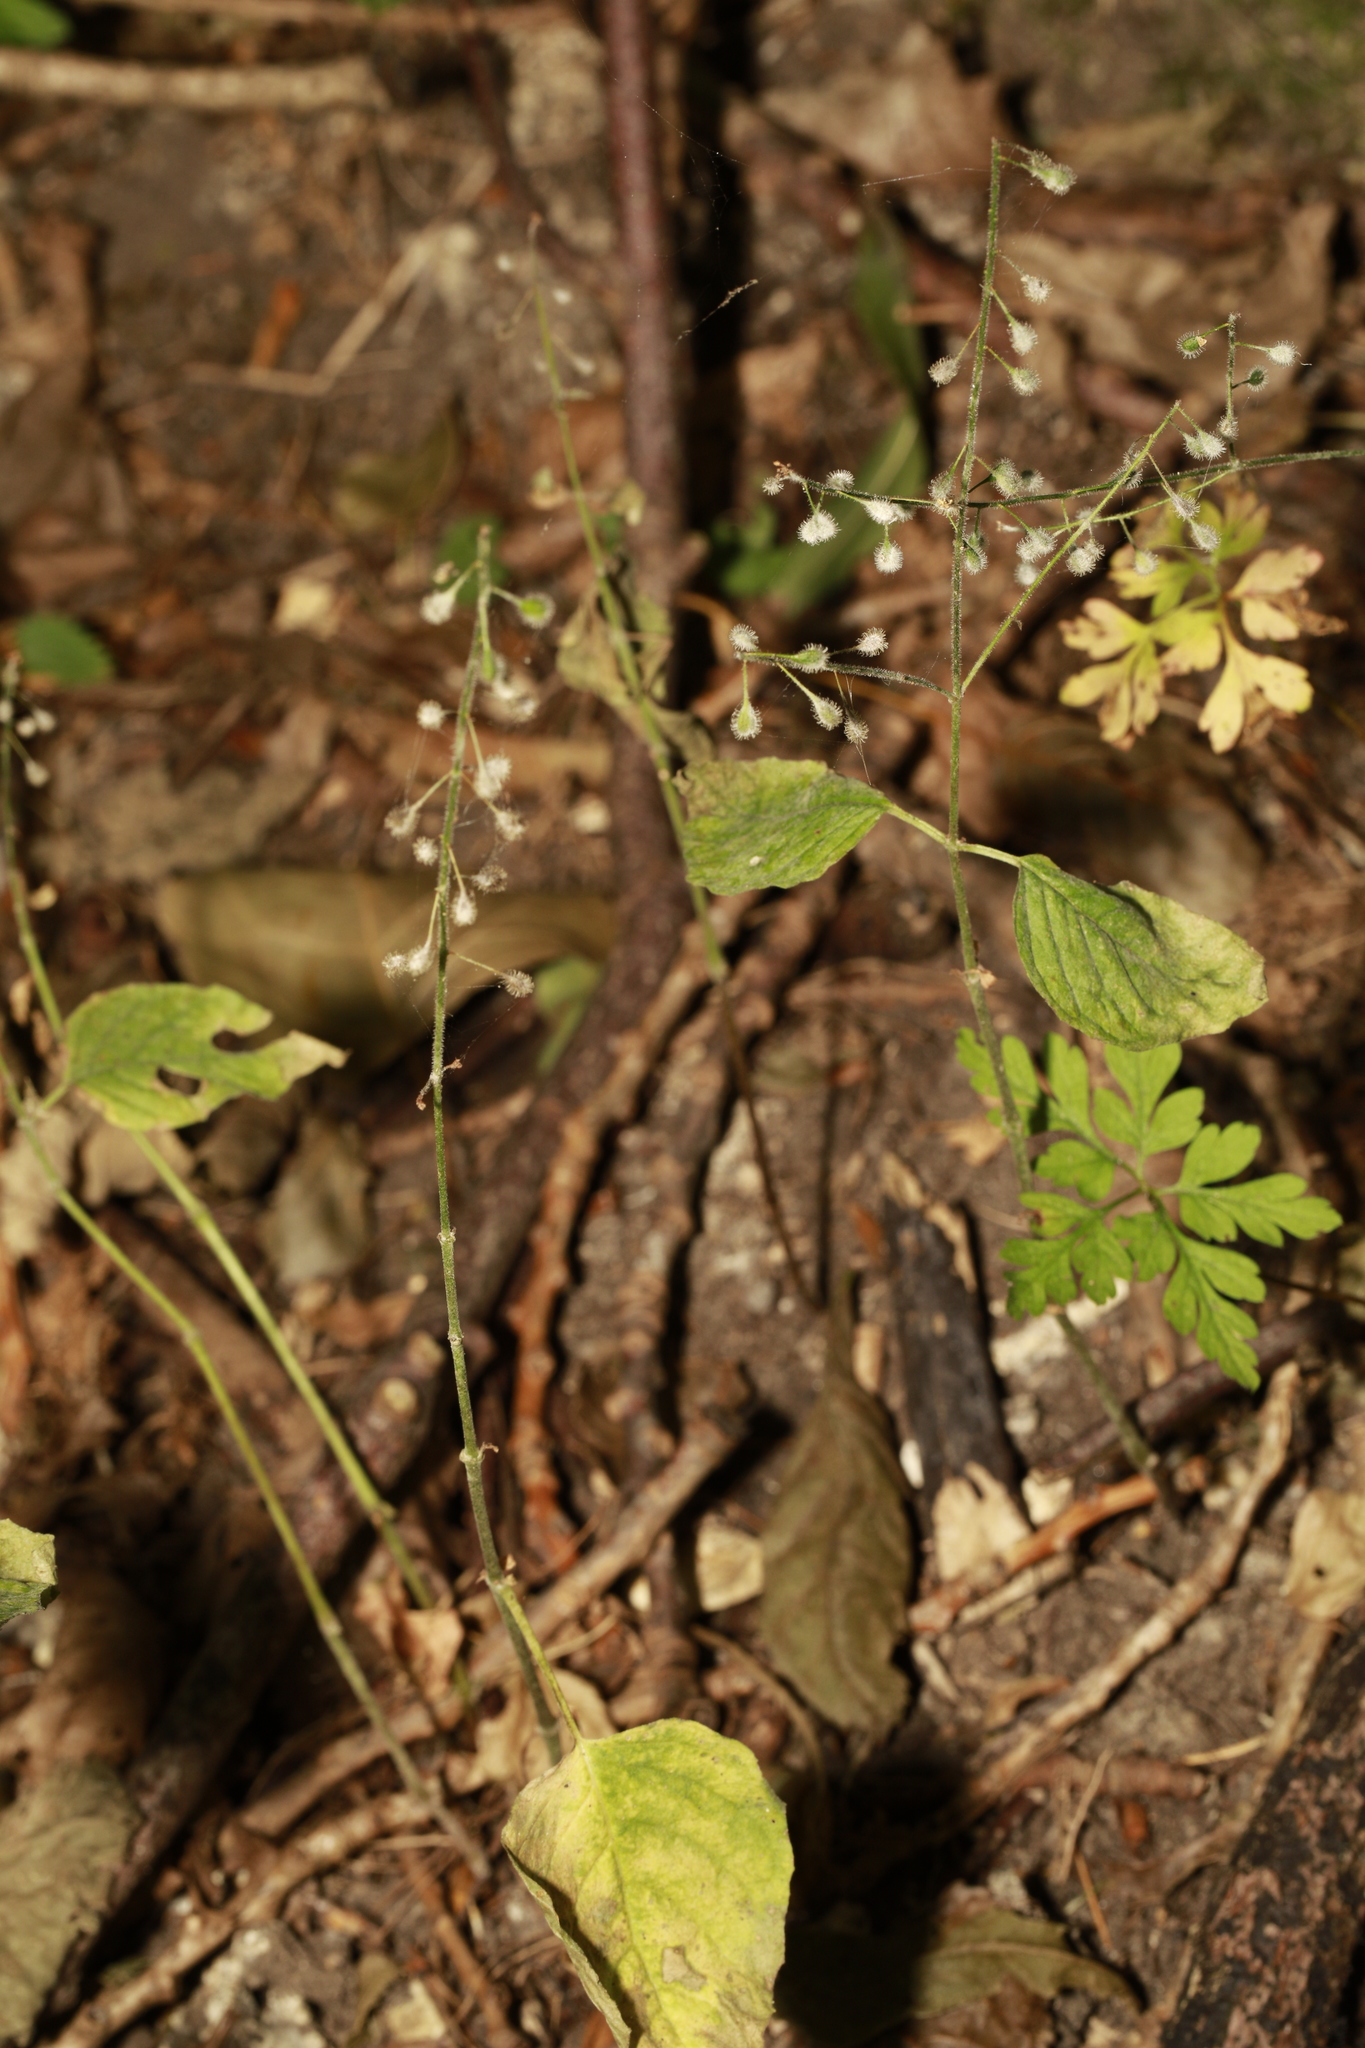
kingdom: Plantae
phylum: Tracheophyta
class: Magnoliopsida
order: Myrtales
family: Onagraceae
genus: Circaea
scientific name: Circaea lutetiana
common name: Enchanter's-nightshade
